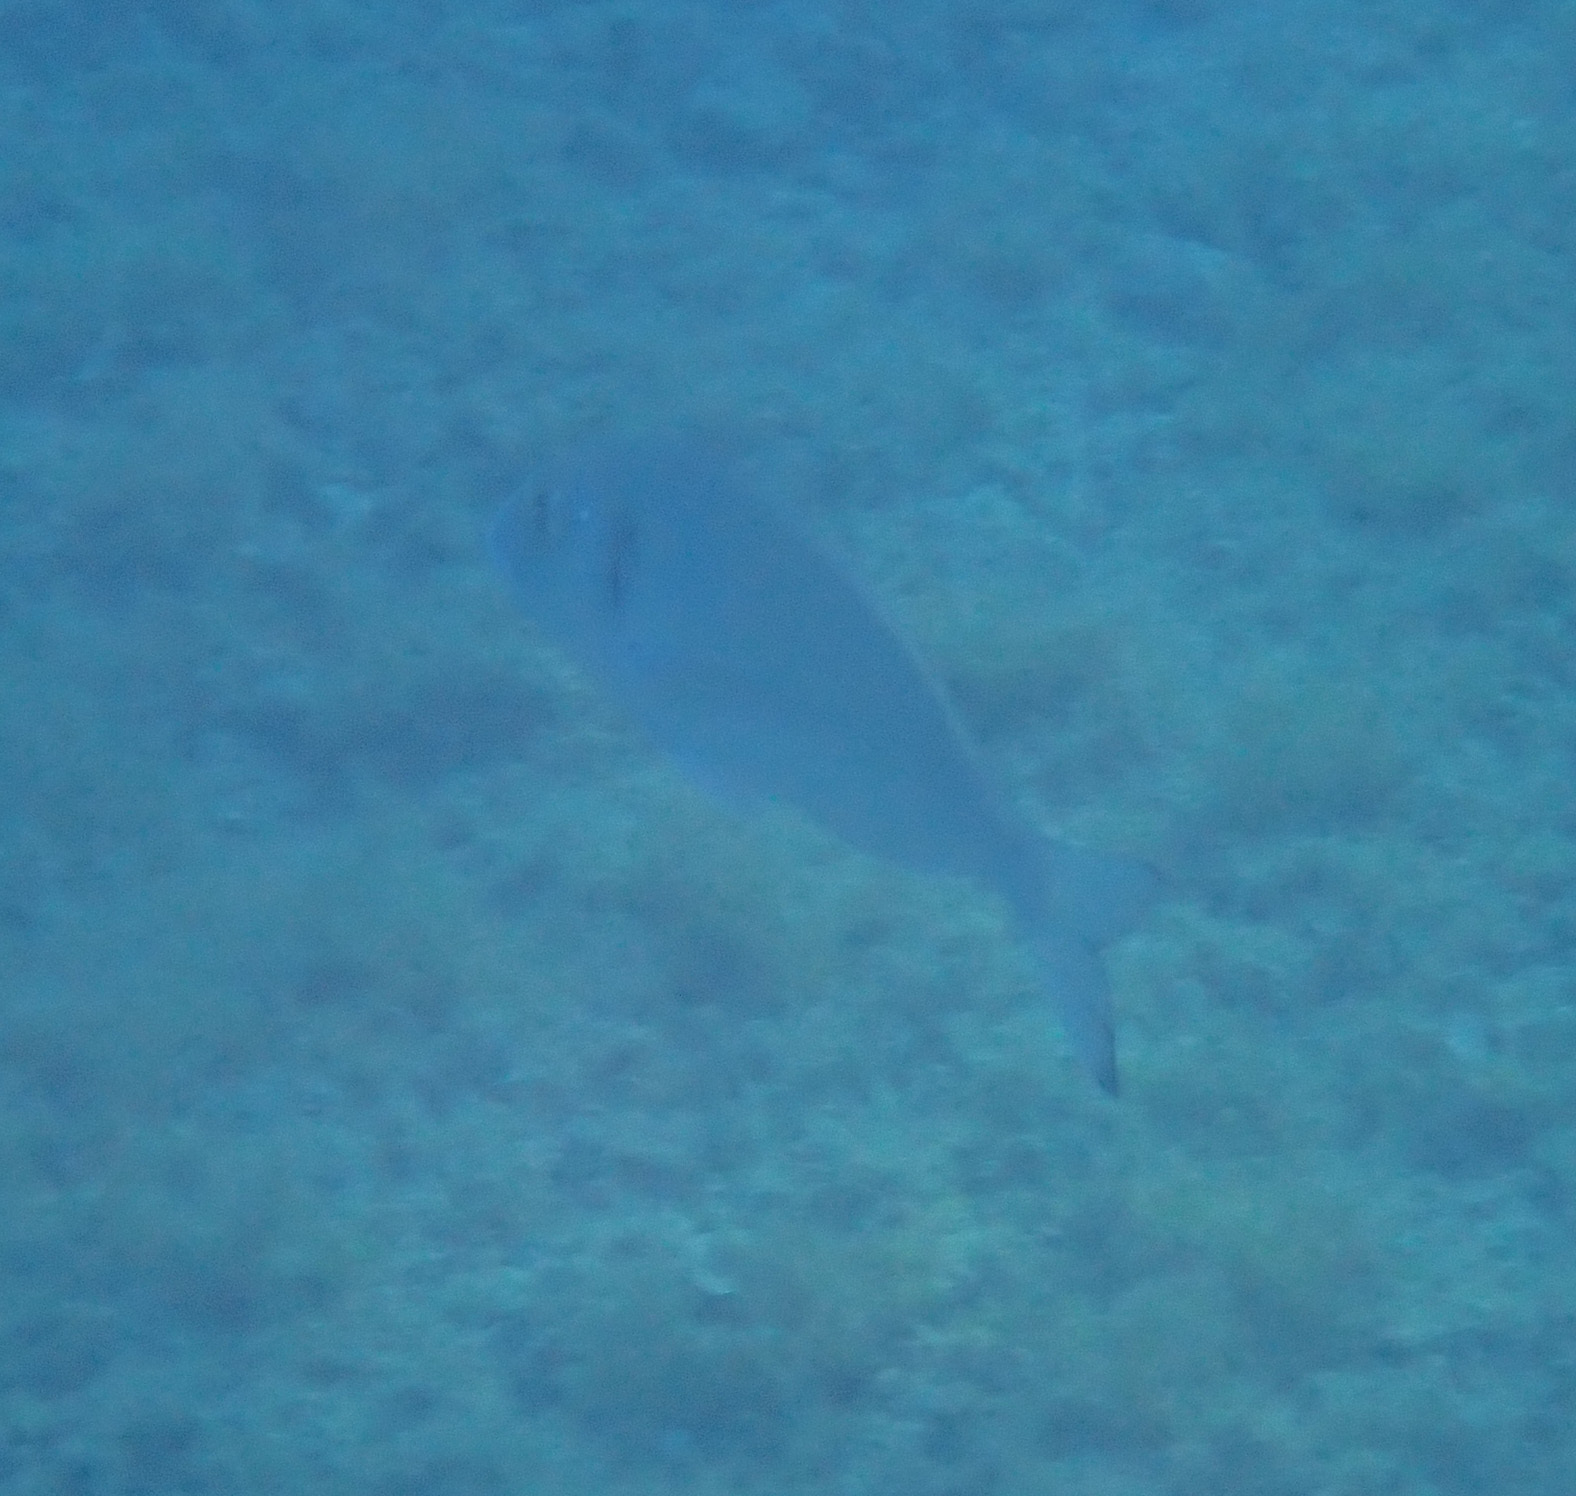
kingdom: Animalia
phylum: Chordata
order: Perciformes
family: Sparidae
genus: Sparus
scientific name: Sparus aurata
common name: Gilthead
